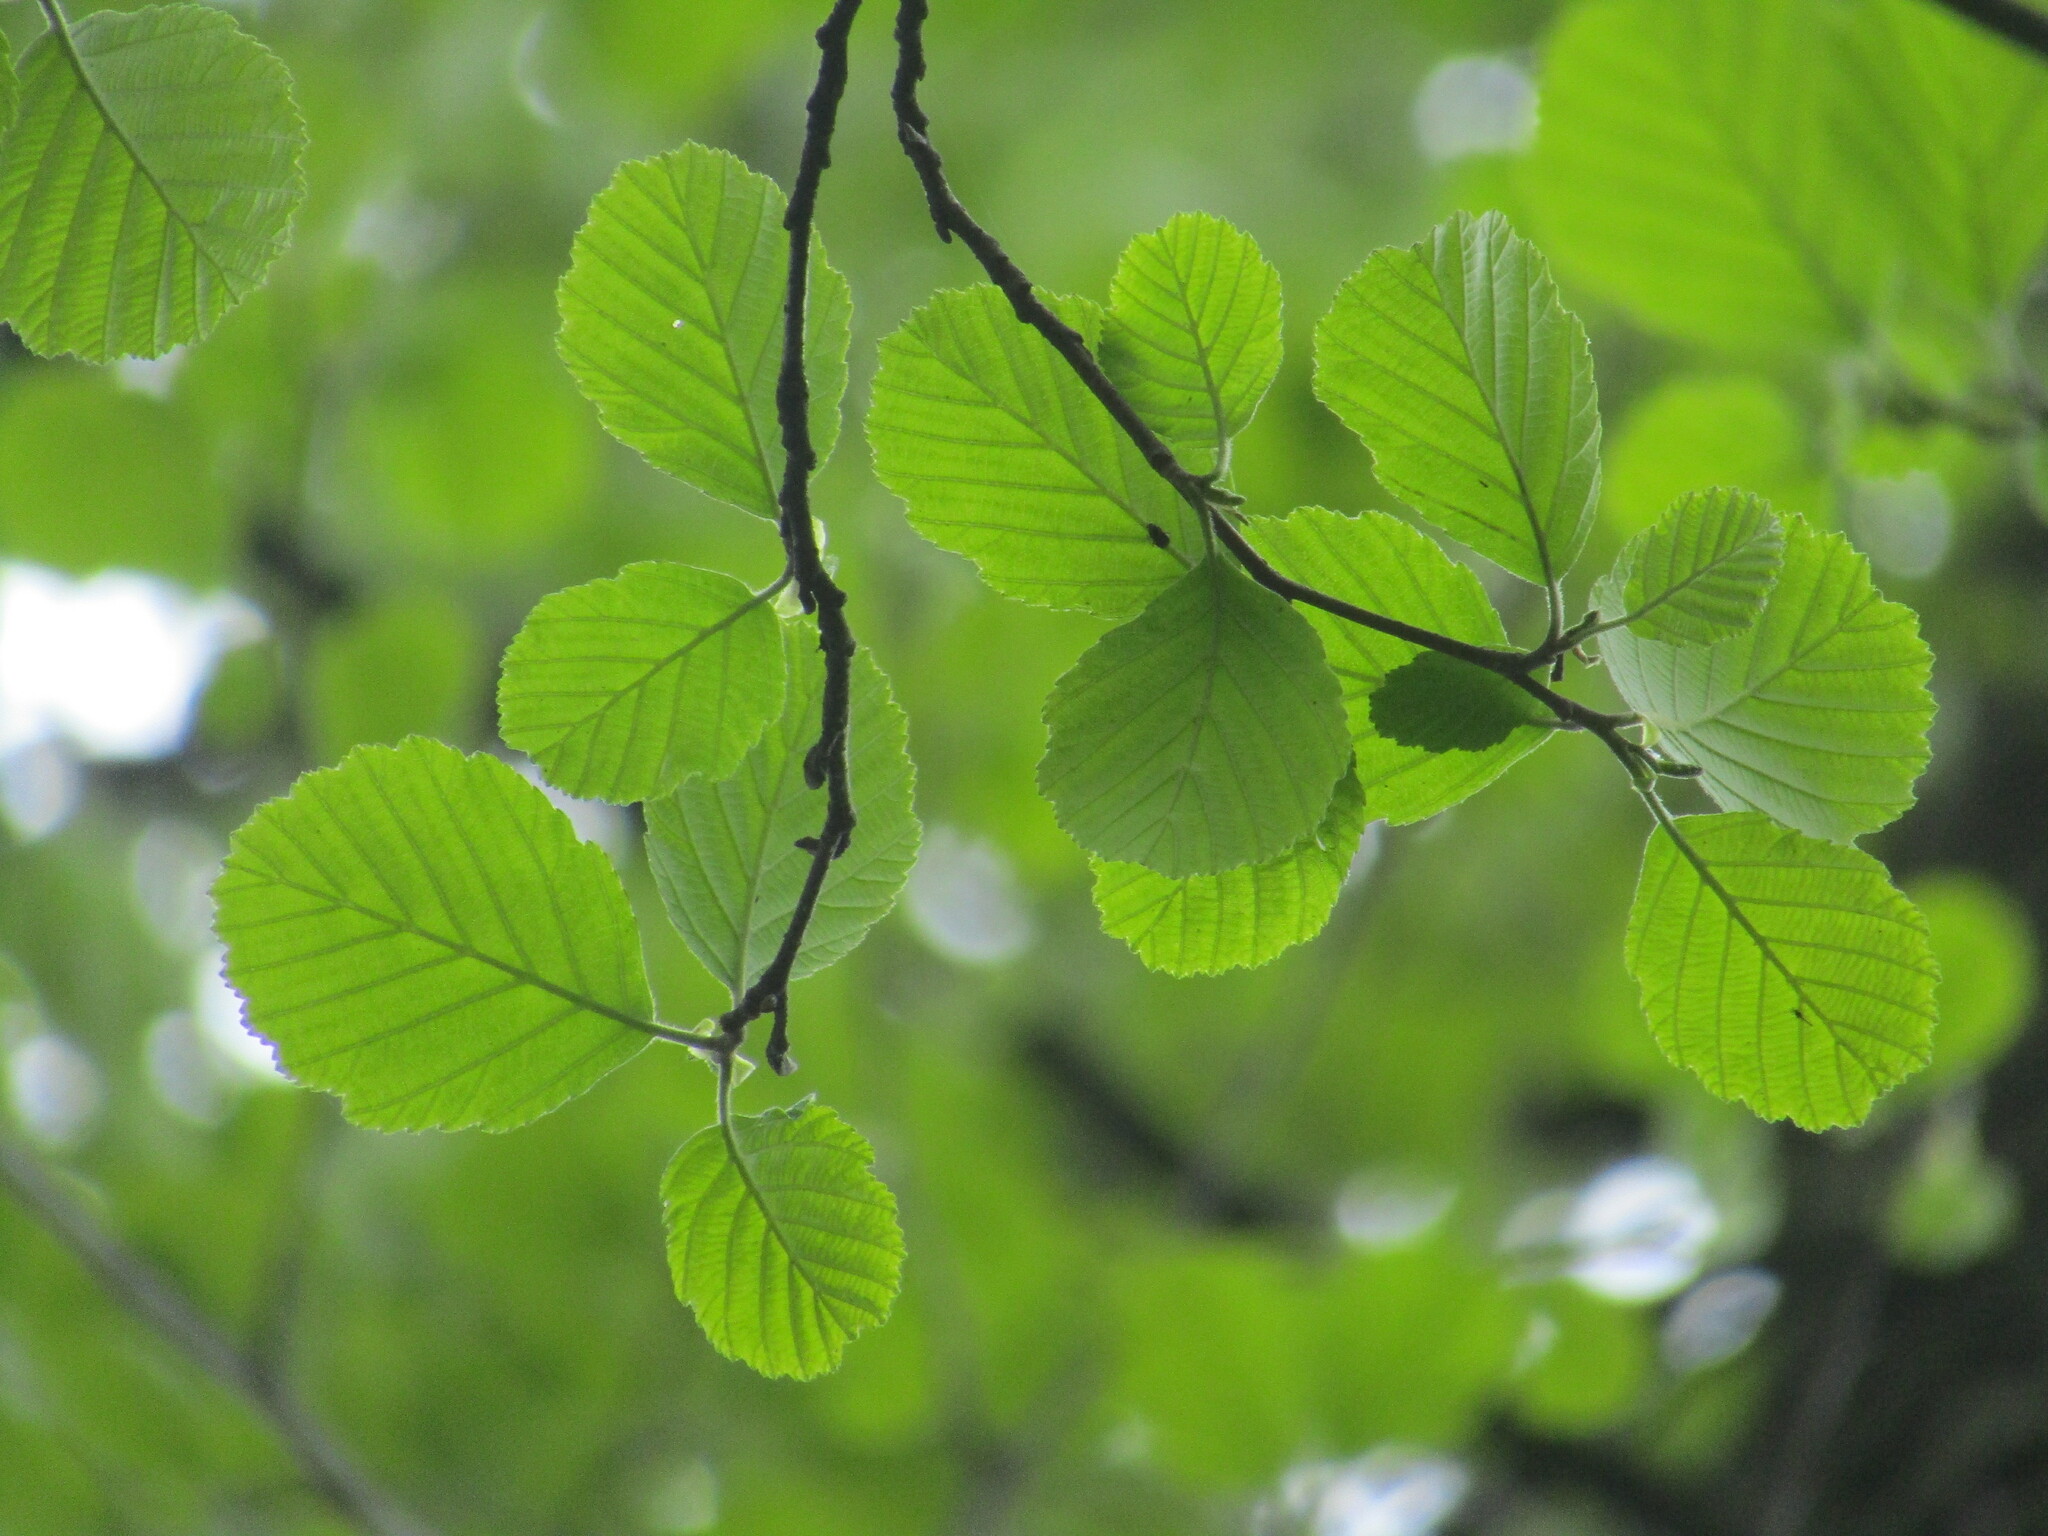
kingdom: Plantae
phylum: Tracheophyta
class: Magnoliopsida
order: Fagales
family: Betulaceae
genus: Alnus
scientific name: Alnus glutinosa
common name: Black alder
